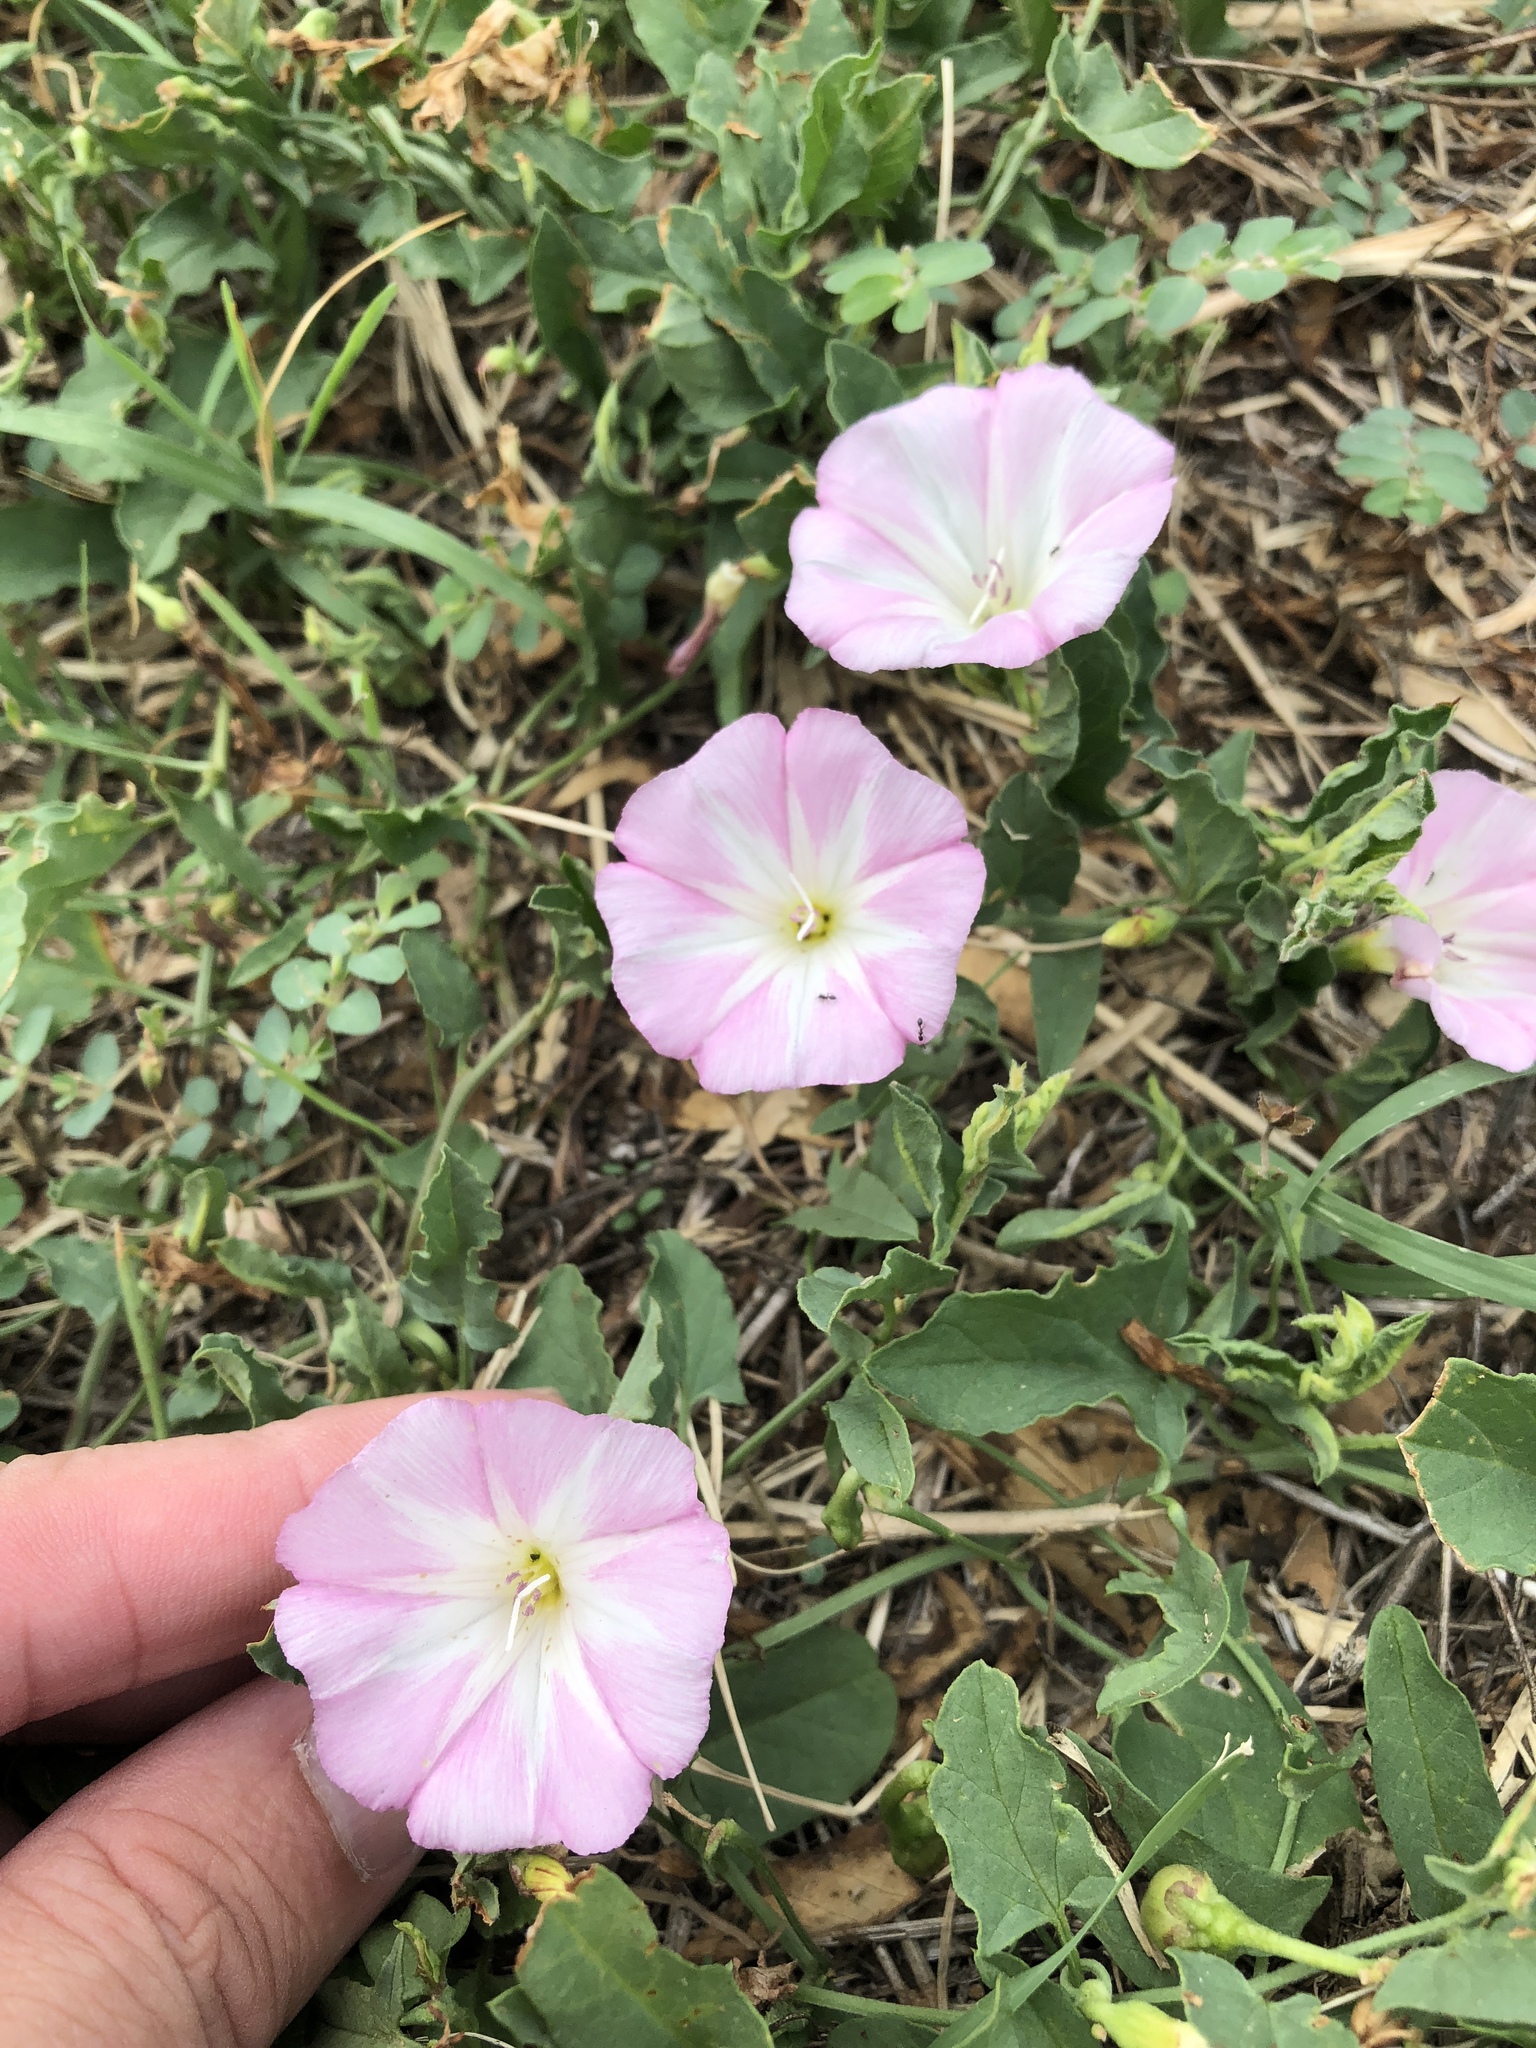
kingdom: Plantae
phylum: Tracheophyta
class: Magnoliopsida
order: Solanales
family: Convolvulaceae
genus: Convolvulus
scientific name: Convolvulus arvensis
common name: Field bindweed
